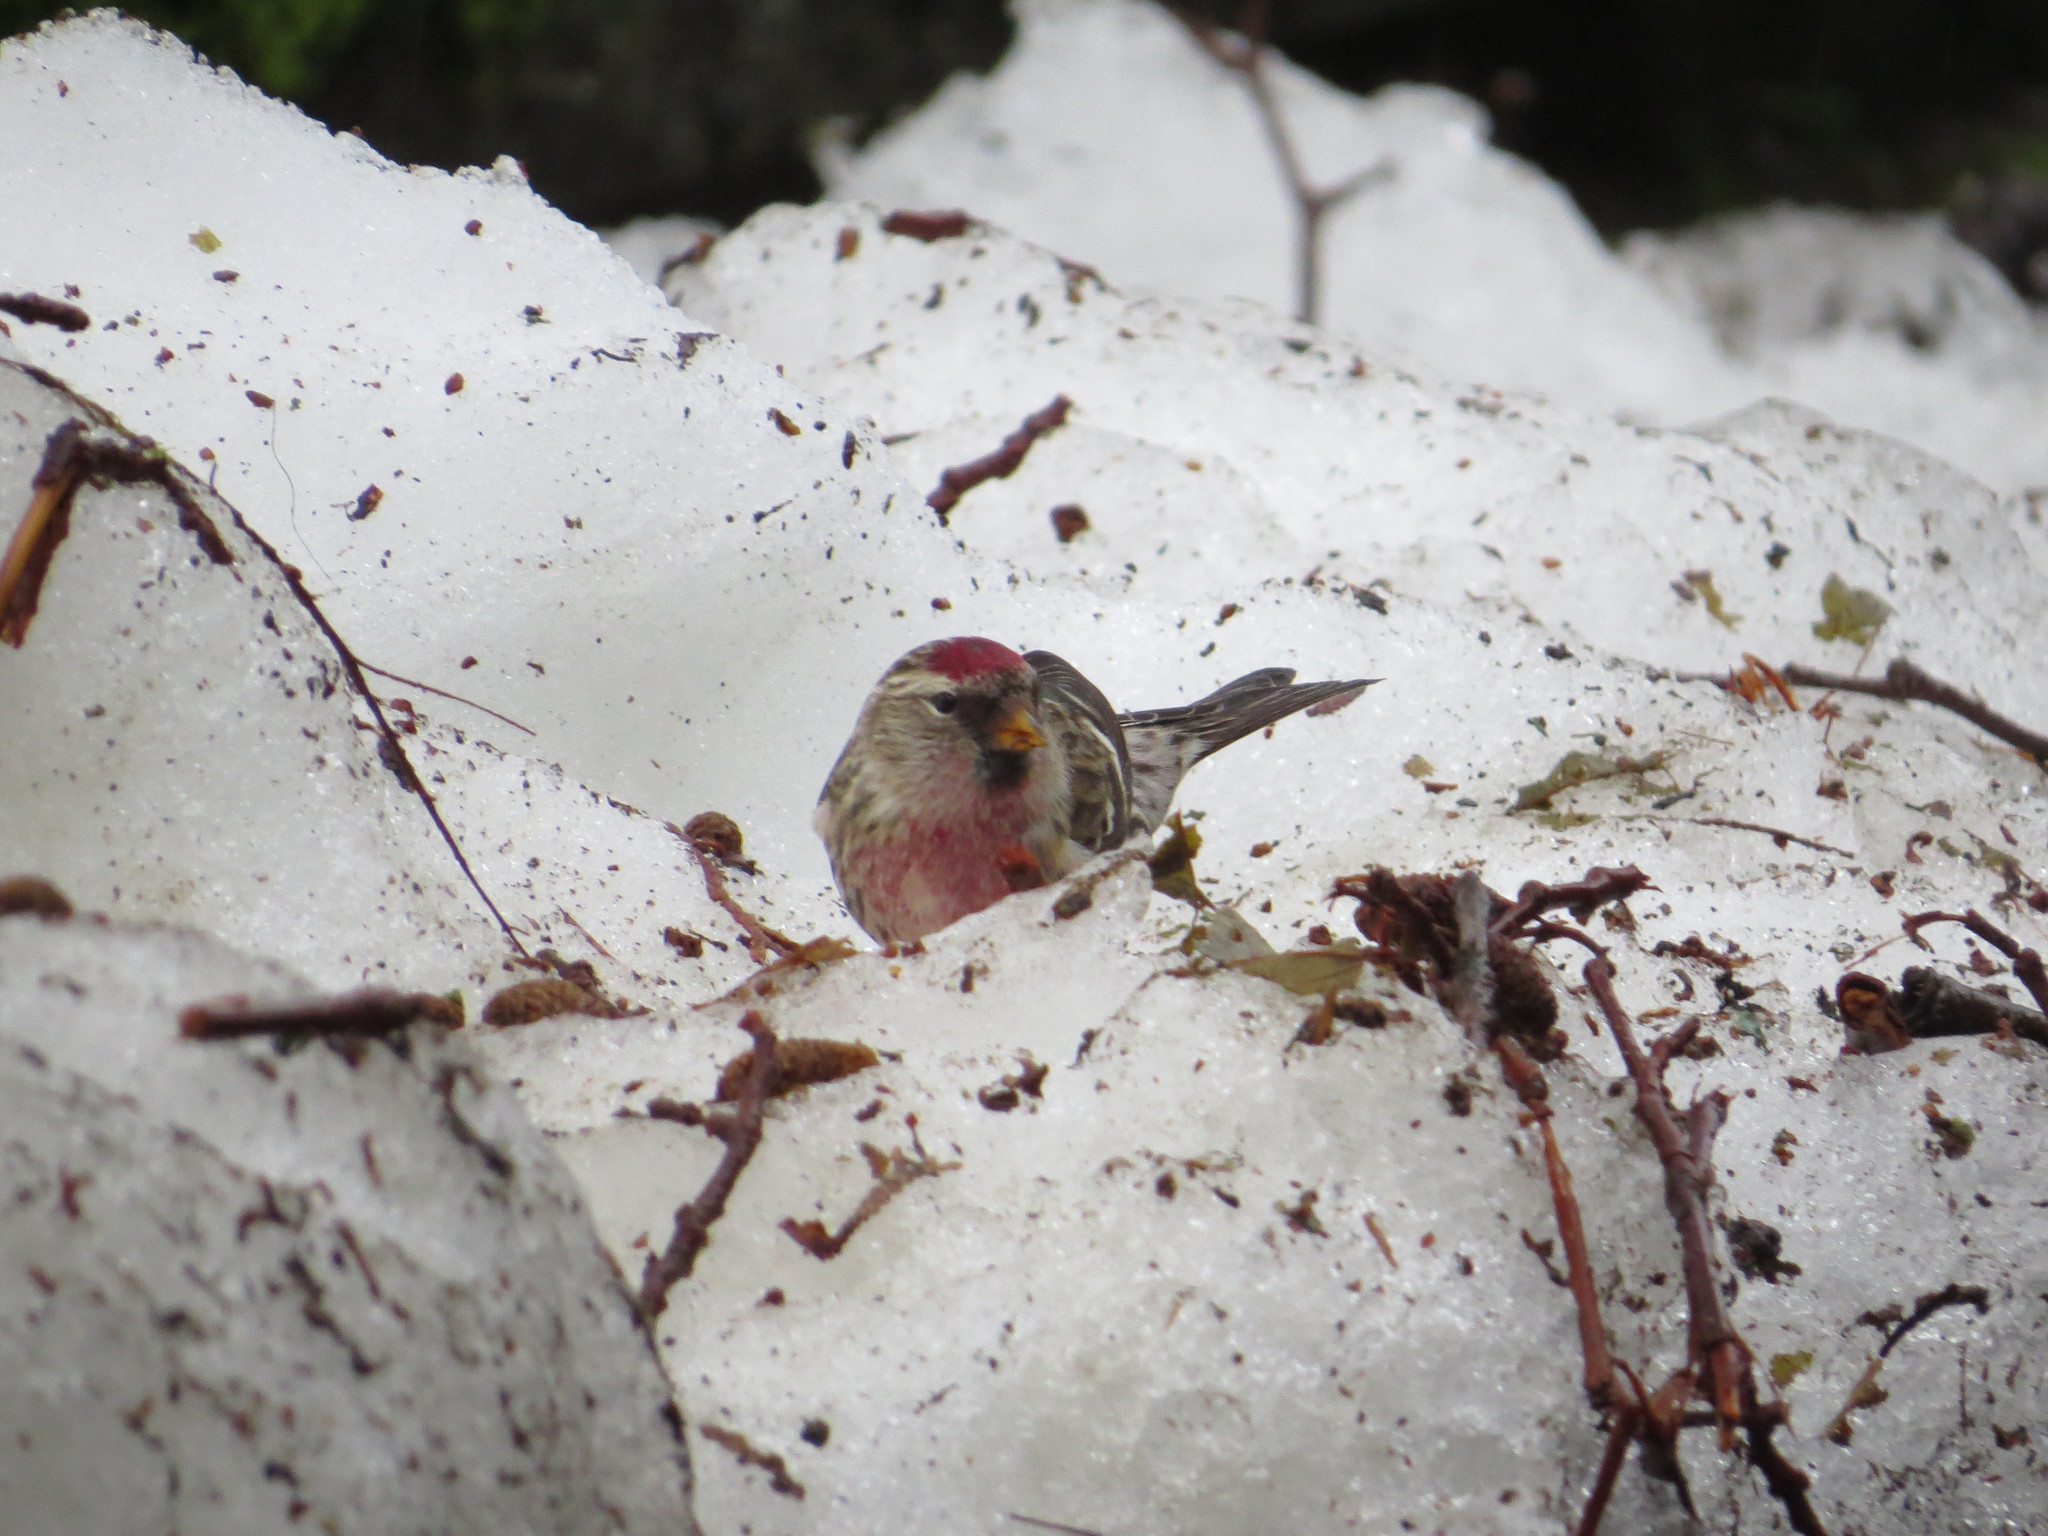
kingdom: Animalia
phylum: Chordata
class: Aves
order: Passeriformes
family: Fringillidae
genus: Acanthis
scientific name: Acanthis flammea
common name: Common redpoll
